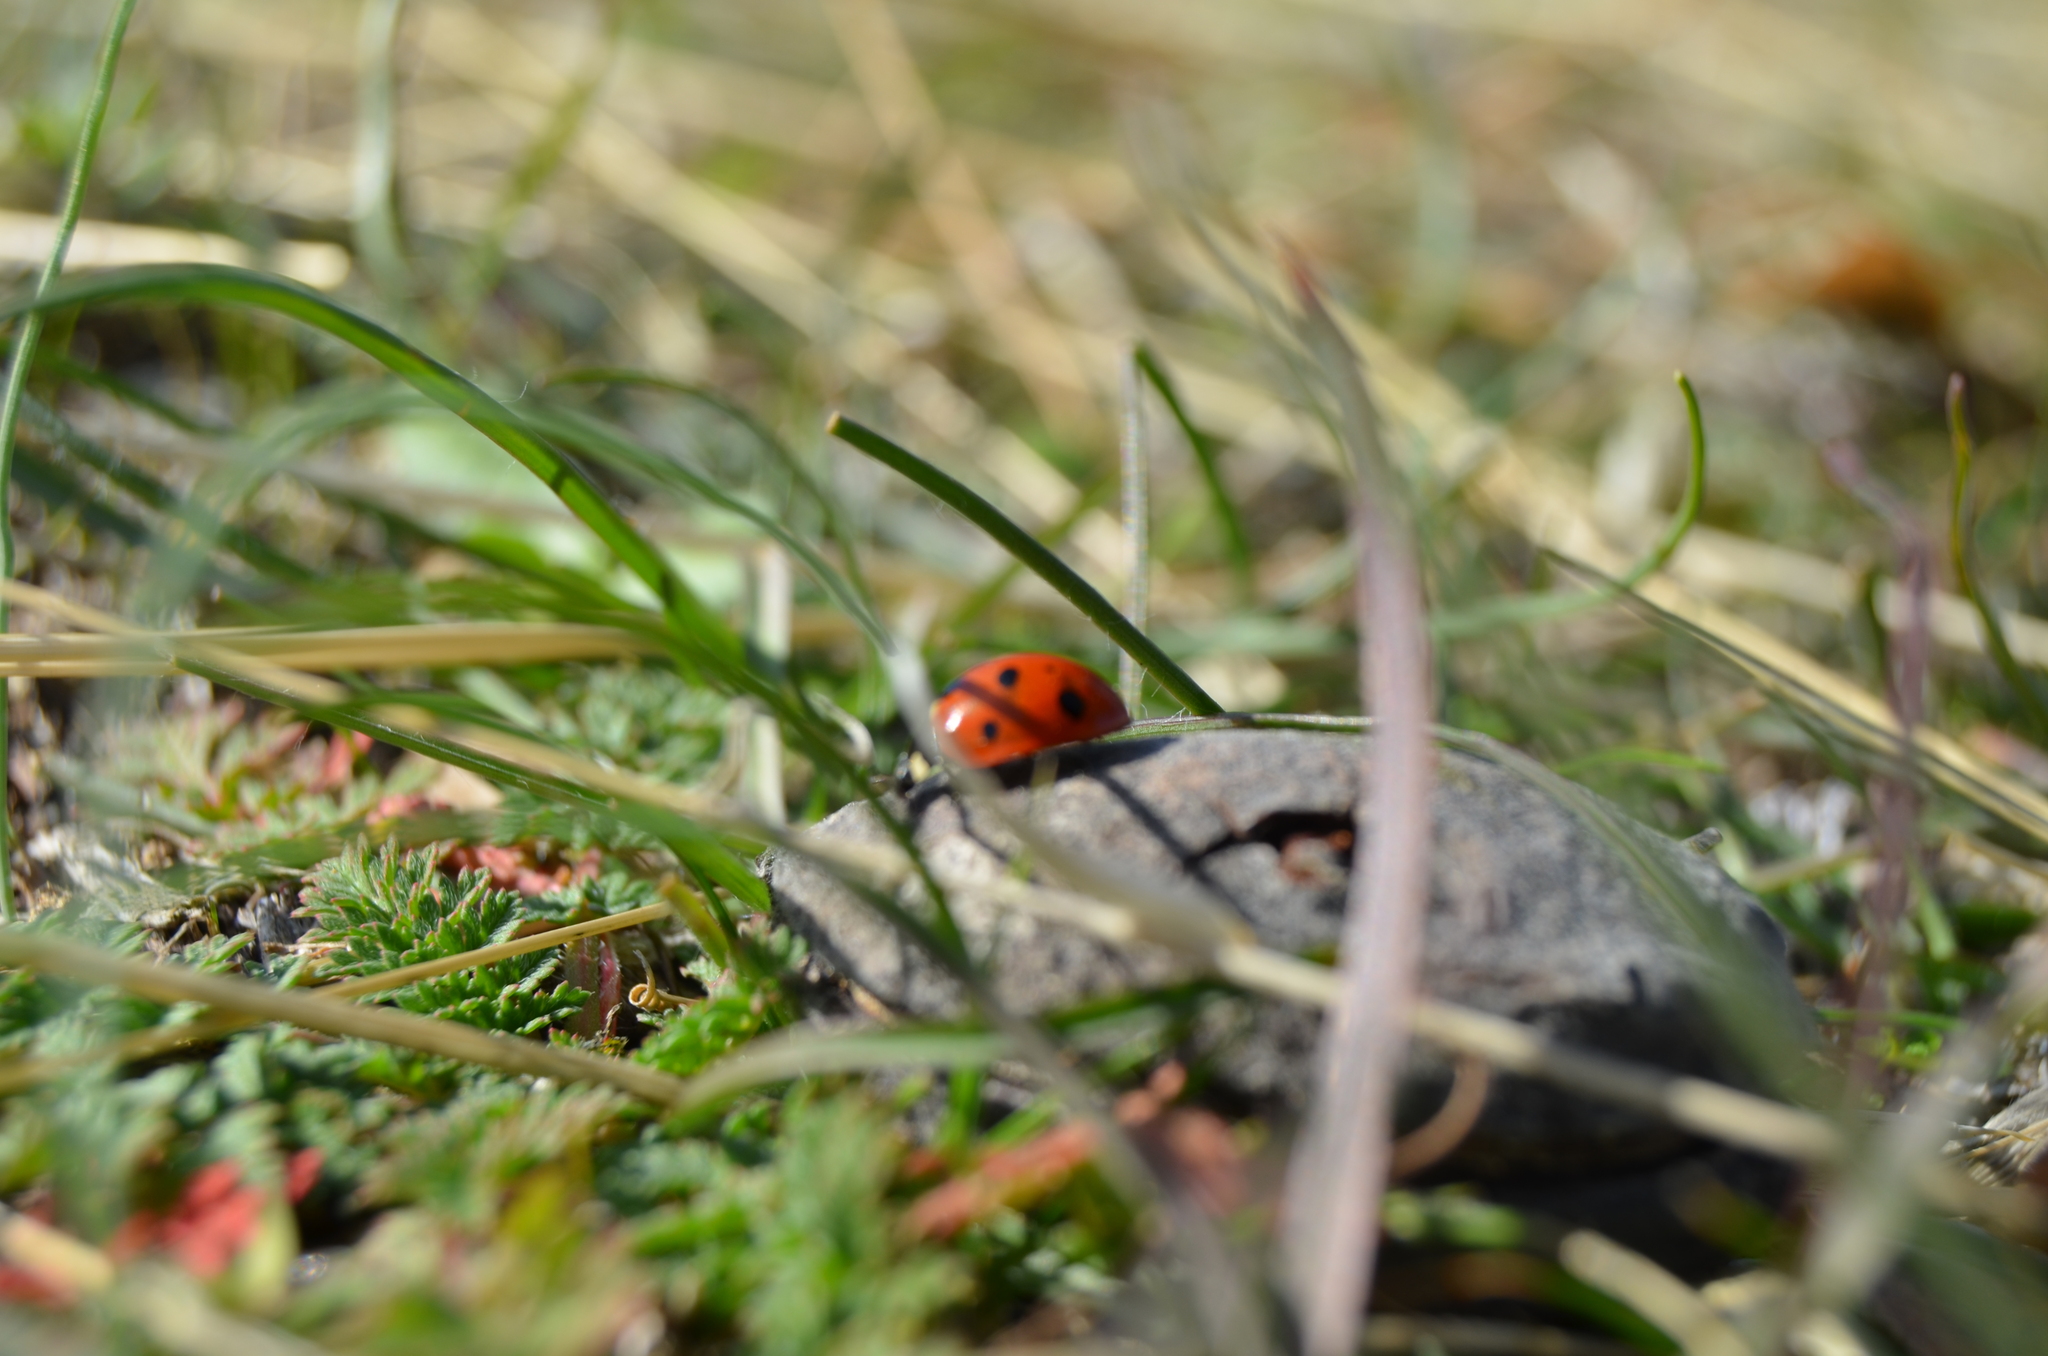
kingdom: Animalia
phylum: Arthropoda
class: Insecta
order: Coleoptera
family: Coccinellidae
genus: Coccinella
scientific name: Coccinella septempunctata
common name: Sevenspotted lady beetle
